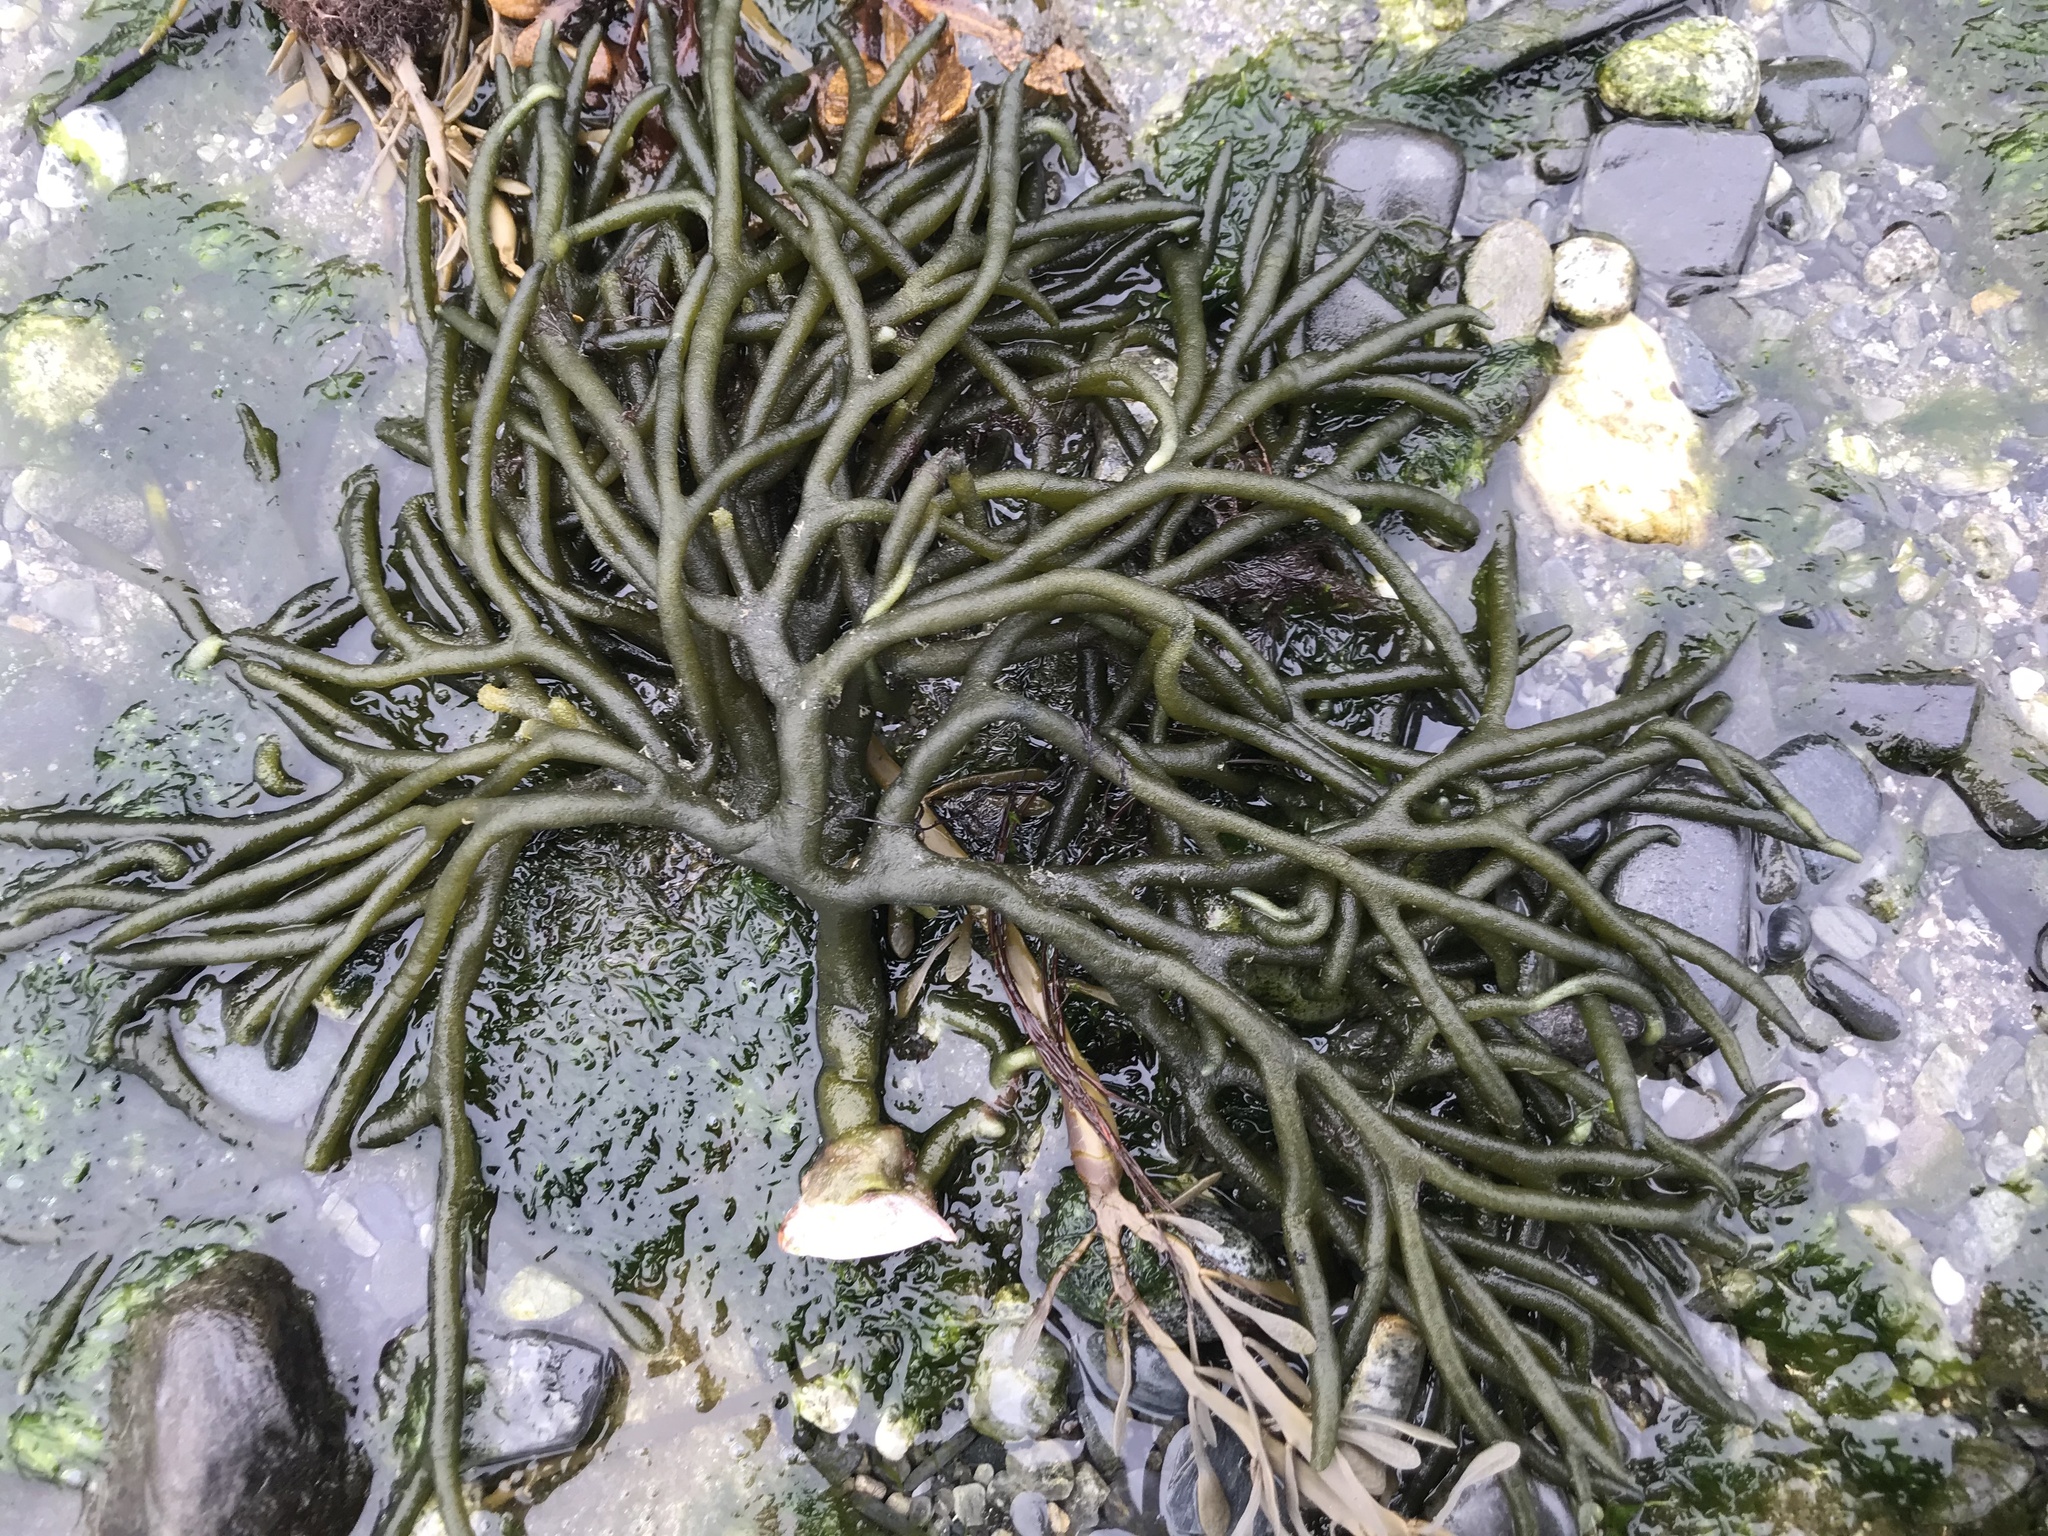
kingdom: Plantae
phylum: Chlorophyta
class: Ulvophyceae
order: Bryopsidales
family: Codiaceae
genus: Codium
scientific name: Codium fragile
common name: Dead man's fingers
